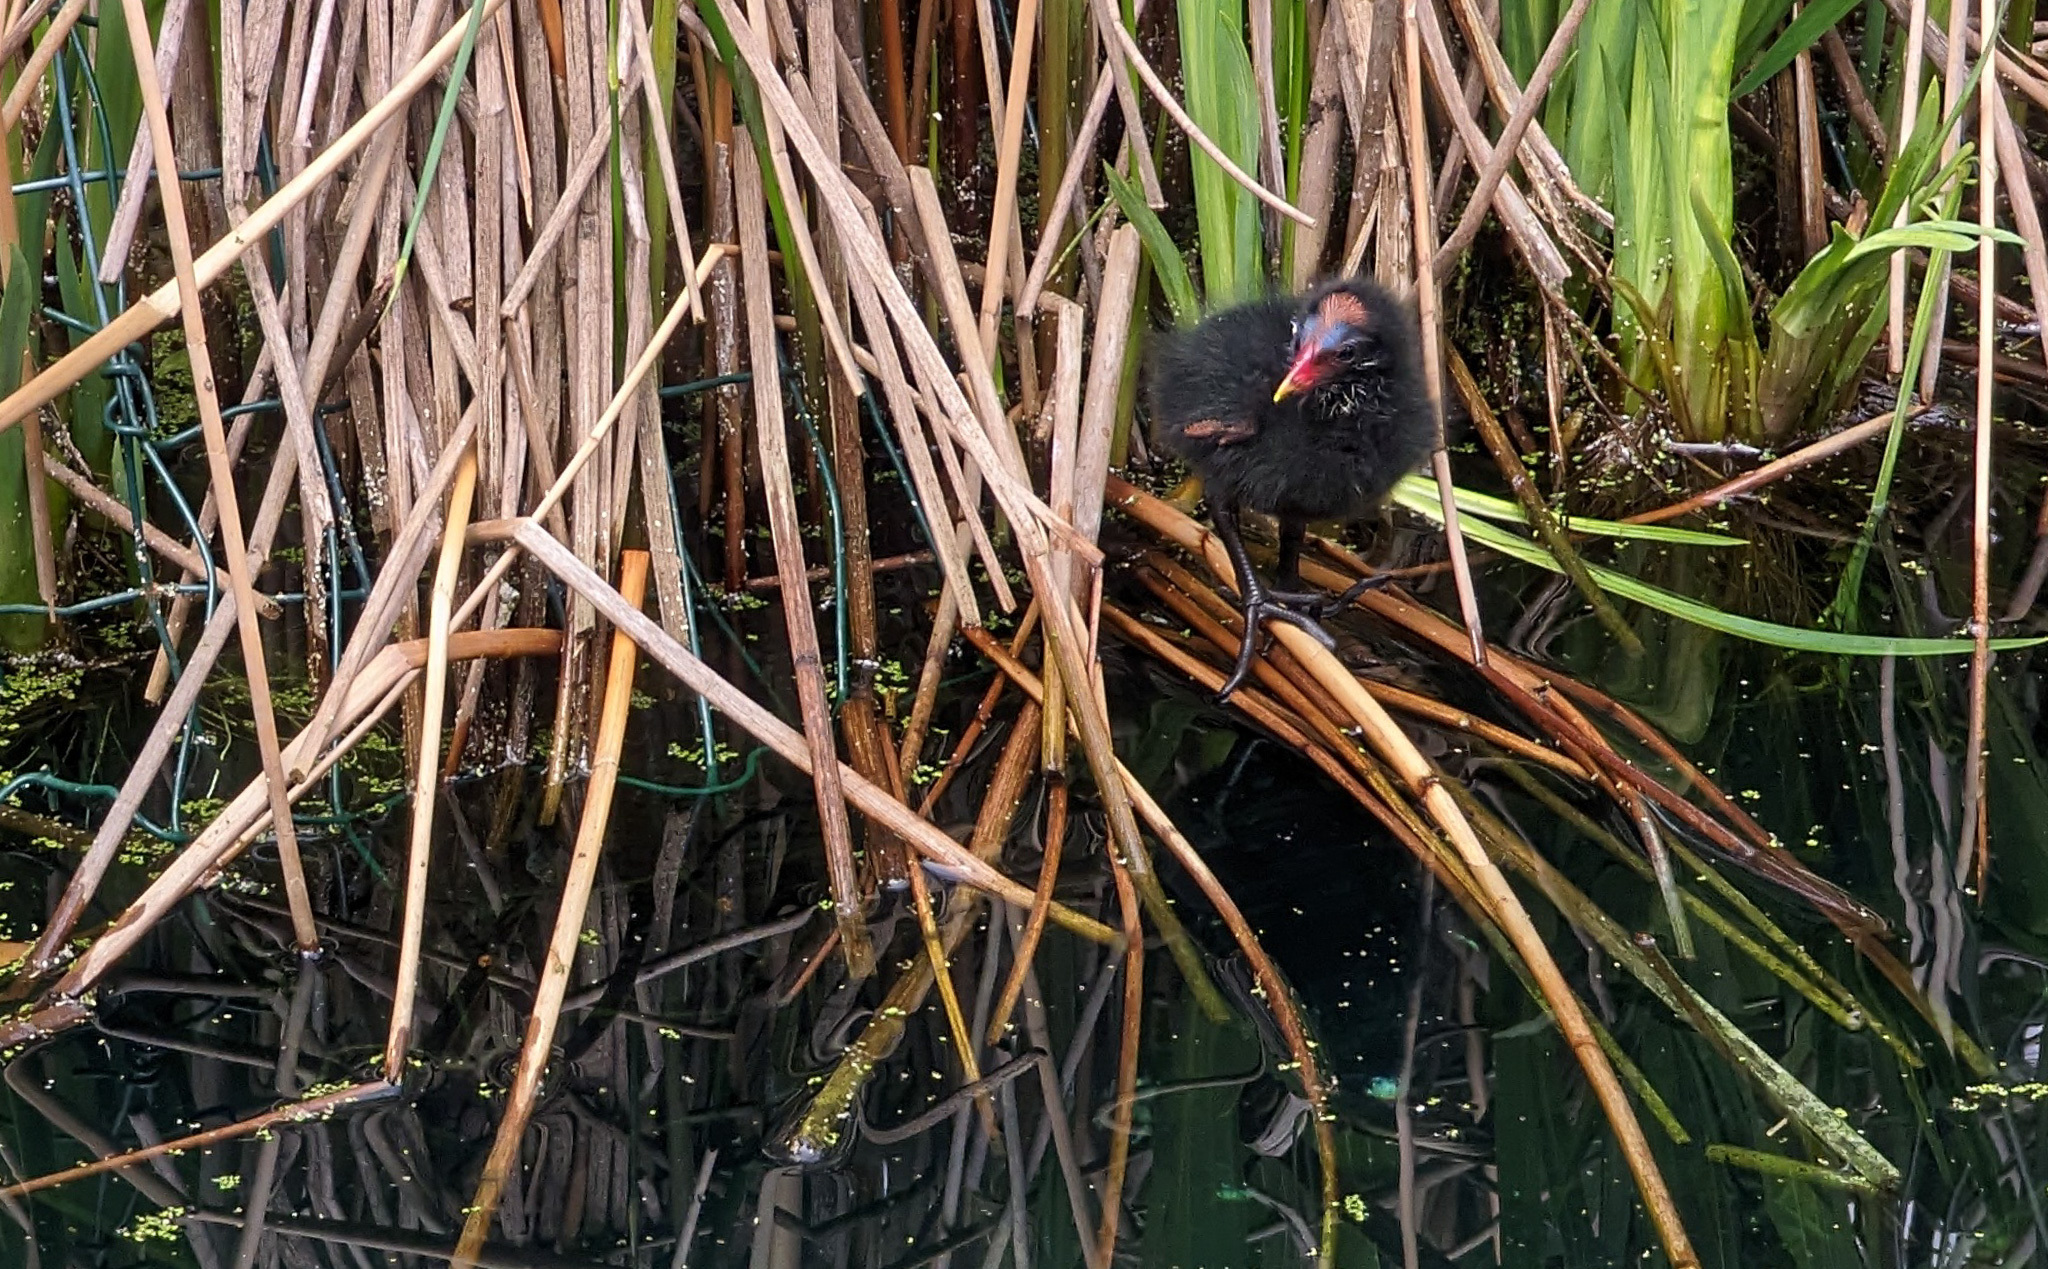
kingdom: Animalia
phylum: Chordata
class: Aves
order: Gruiformes
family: Rallidae
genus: Gallinula
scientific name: Gallinula chloropus
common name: Common moorhen
